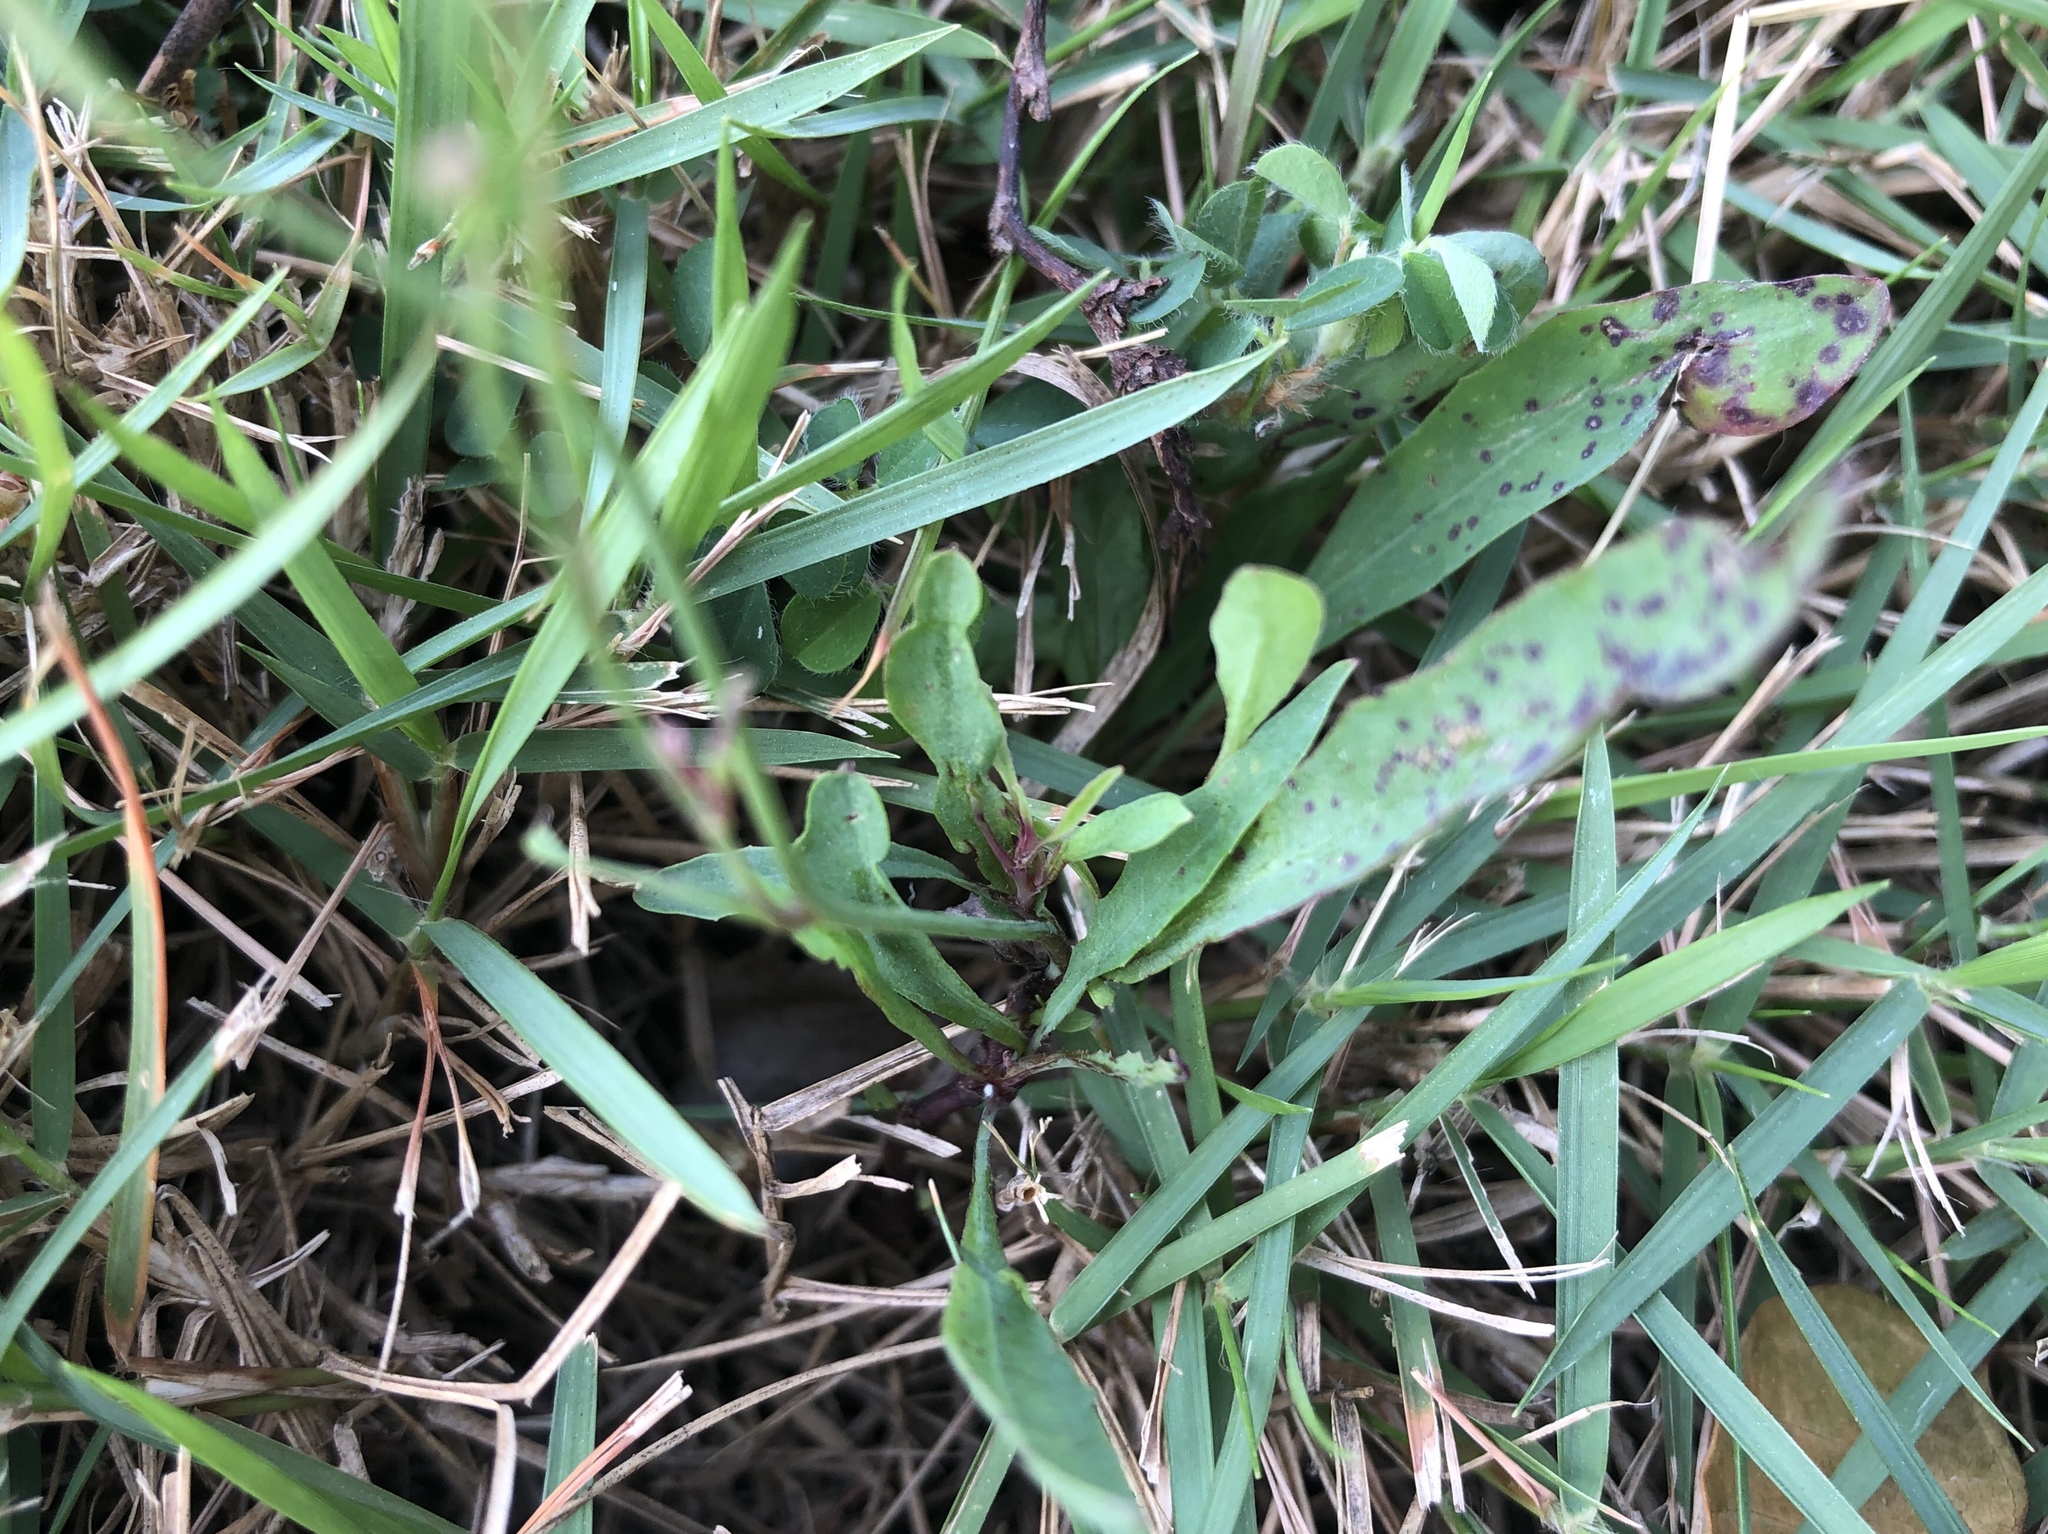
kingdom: Plantae
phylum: Tracheophyta
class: Magnoliopsida
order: Asterales
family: Asteraceae
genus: Ixeris
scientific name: Ixeris chinensis
